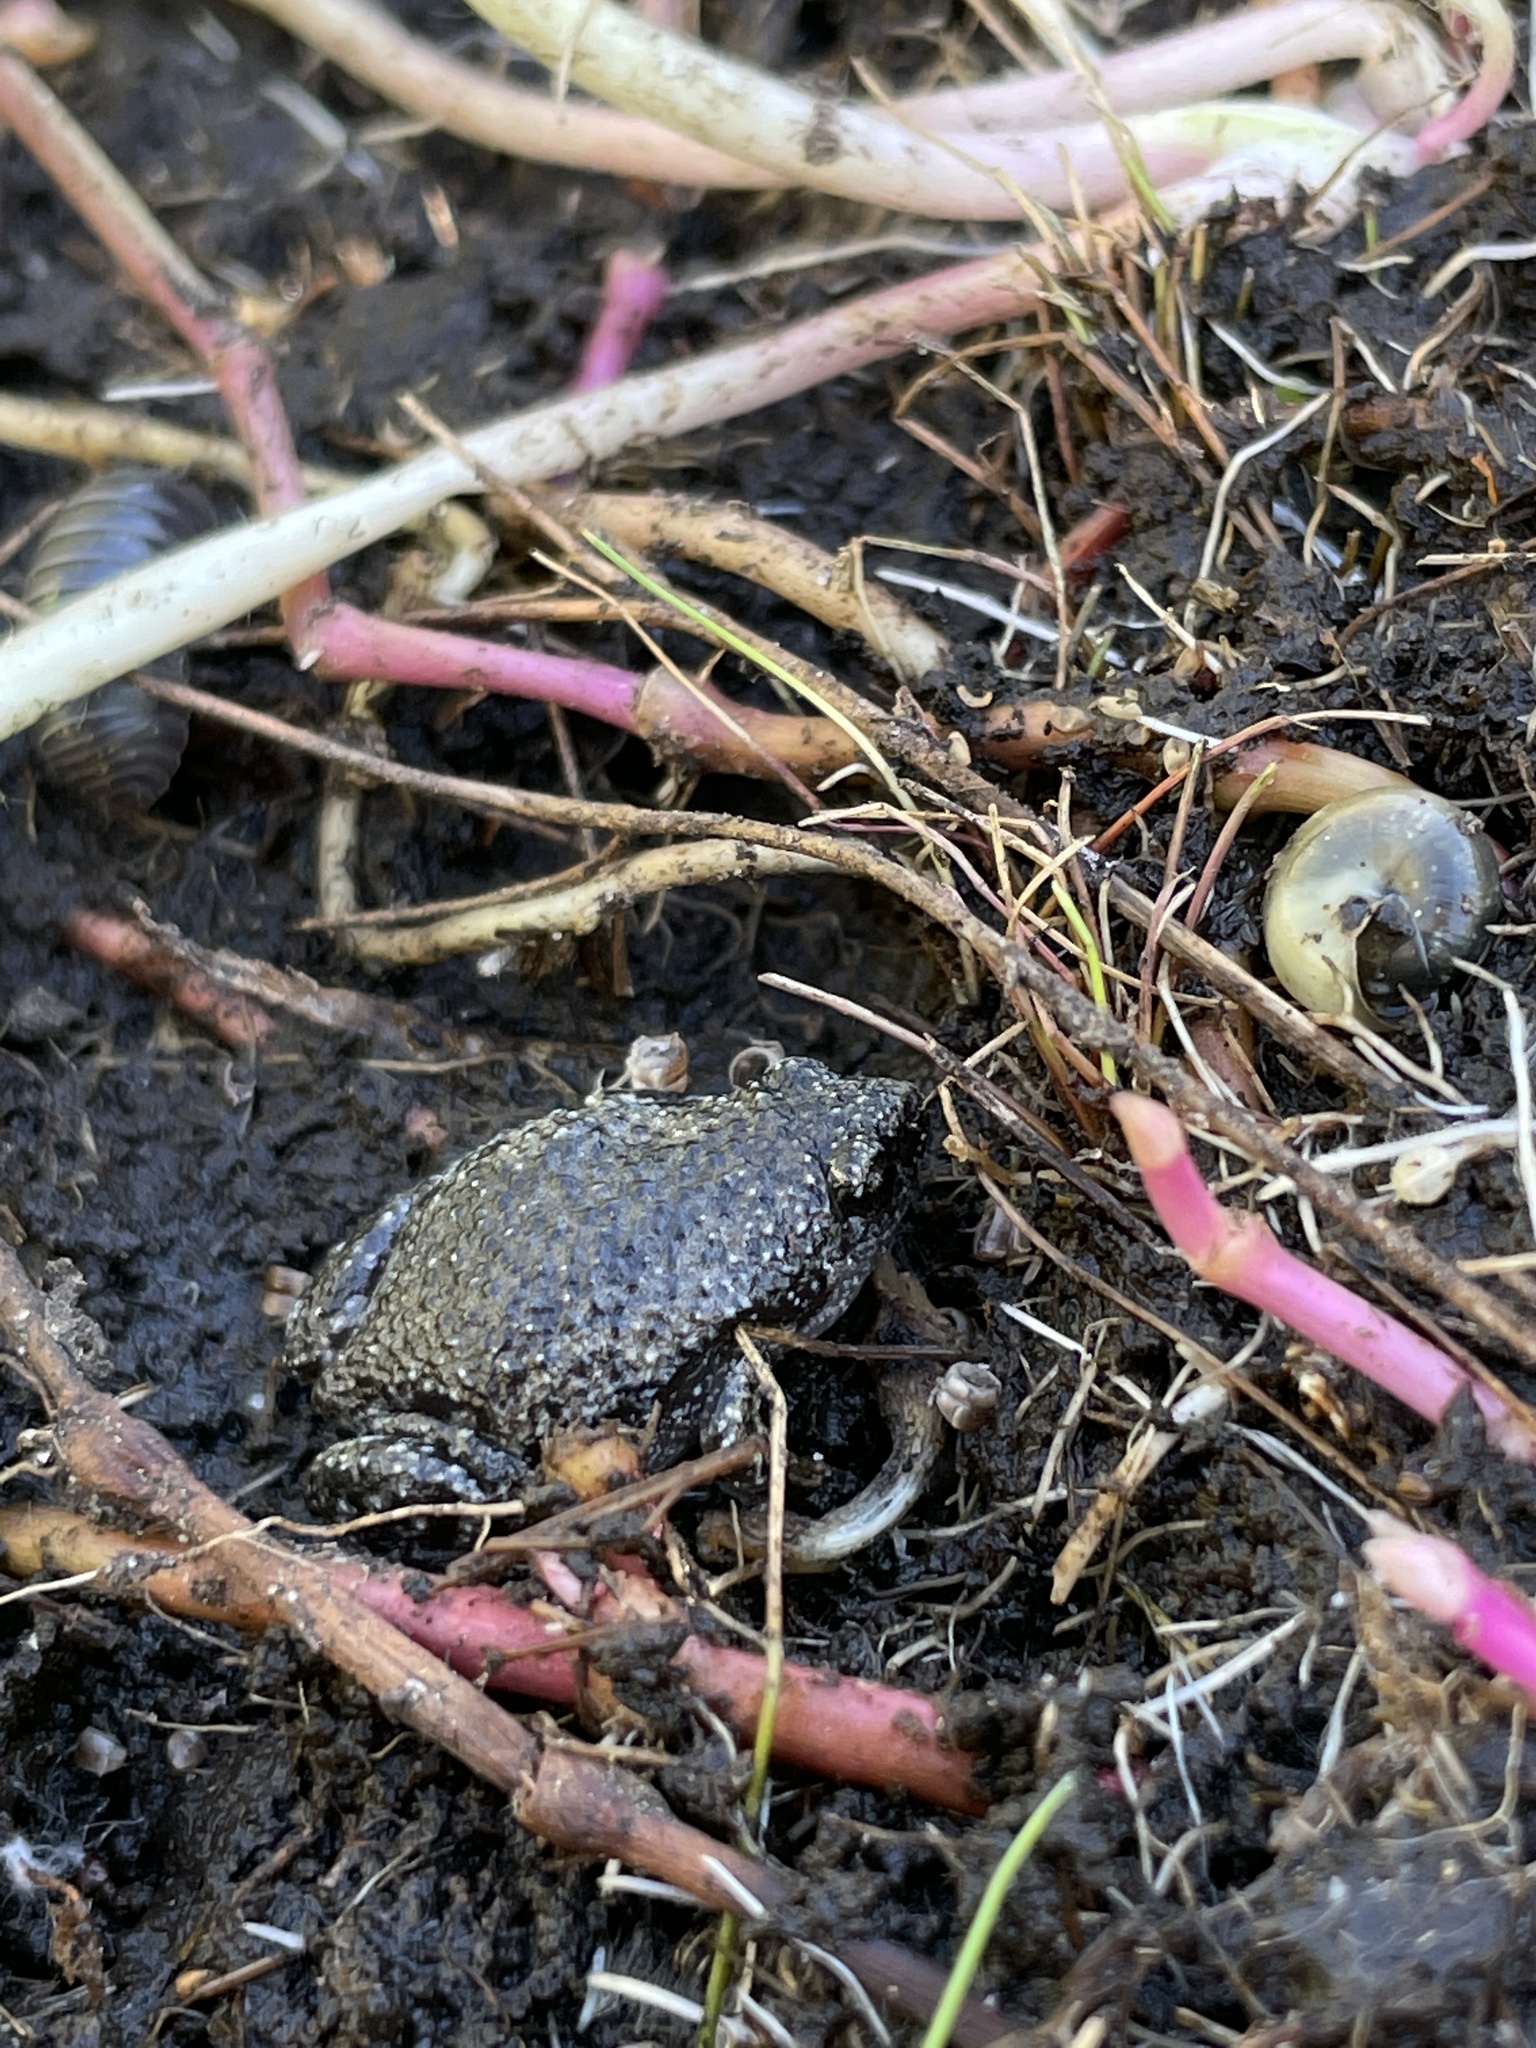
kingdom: Animalia
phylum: Chordata
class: Amphibia
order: Anura
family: Microhylidae
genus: Gastrophryne
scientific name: Gastrophryne carolinensis
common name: Eastern narrowmouth toad
